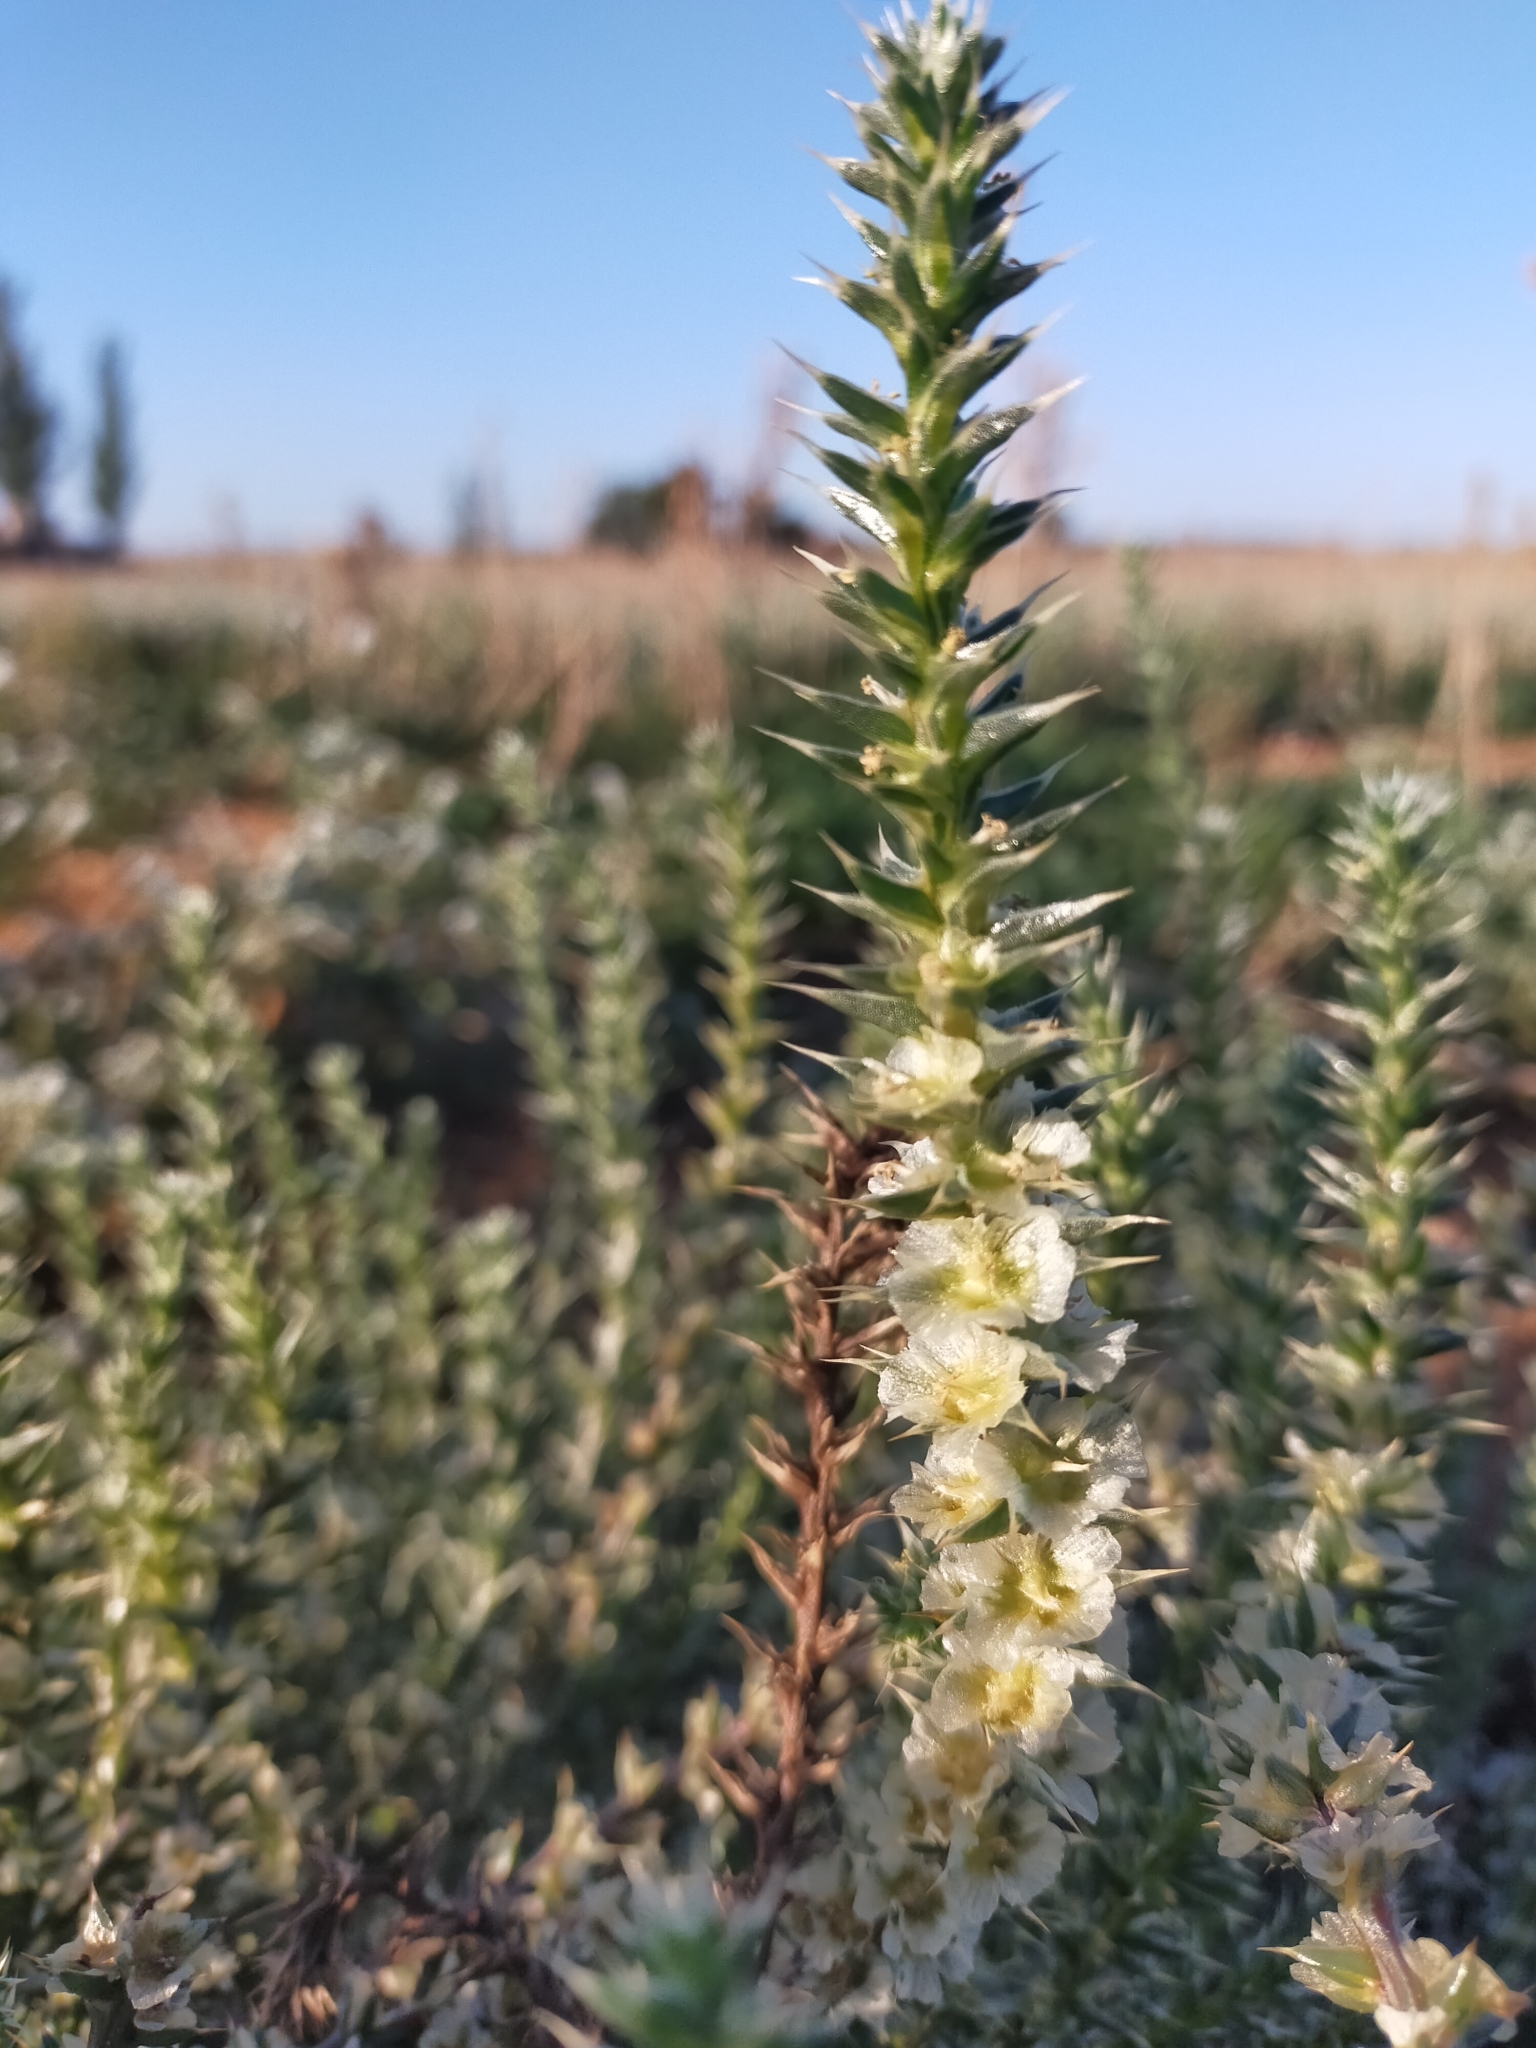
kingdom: Plantae
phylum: Tracheophyta
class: Magnoliopsida
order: Caryophyllales
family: Amaranthaceae
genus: Salsola
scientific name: Salsola kali
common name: Saltwort
